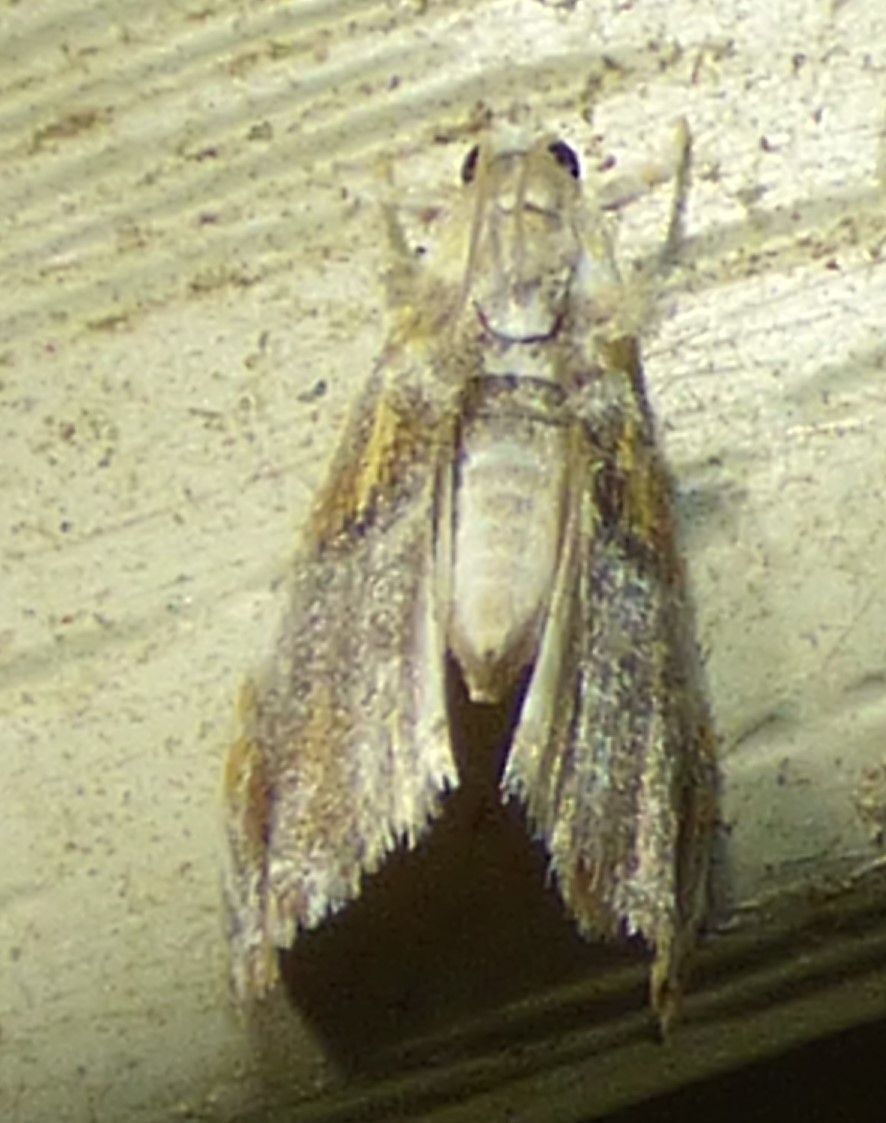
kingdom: Animalia
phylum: Arthropoda
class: Insecta
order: Lepidoptera
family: Crambidae
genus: Glaphyria
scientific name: Glaphyria basiflavalis
